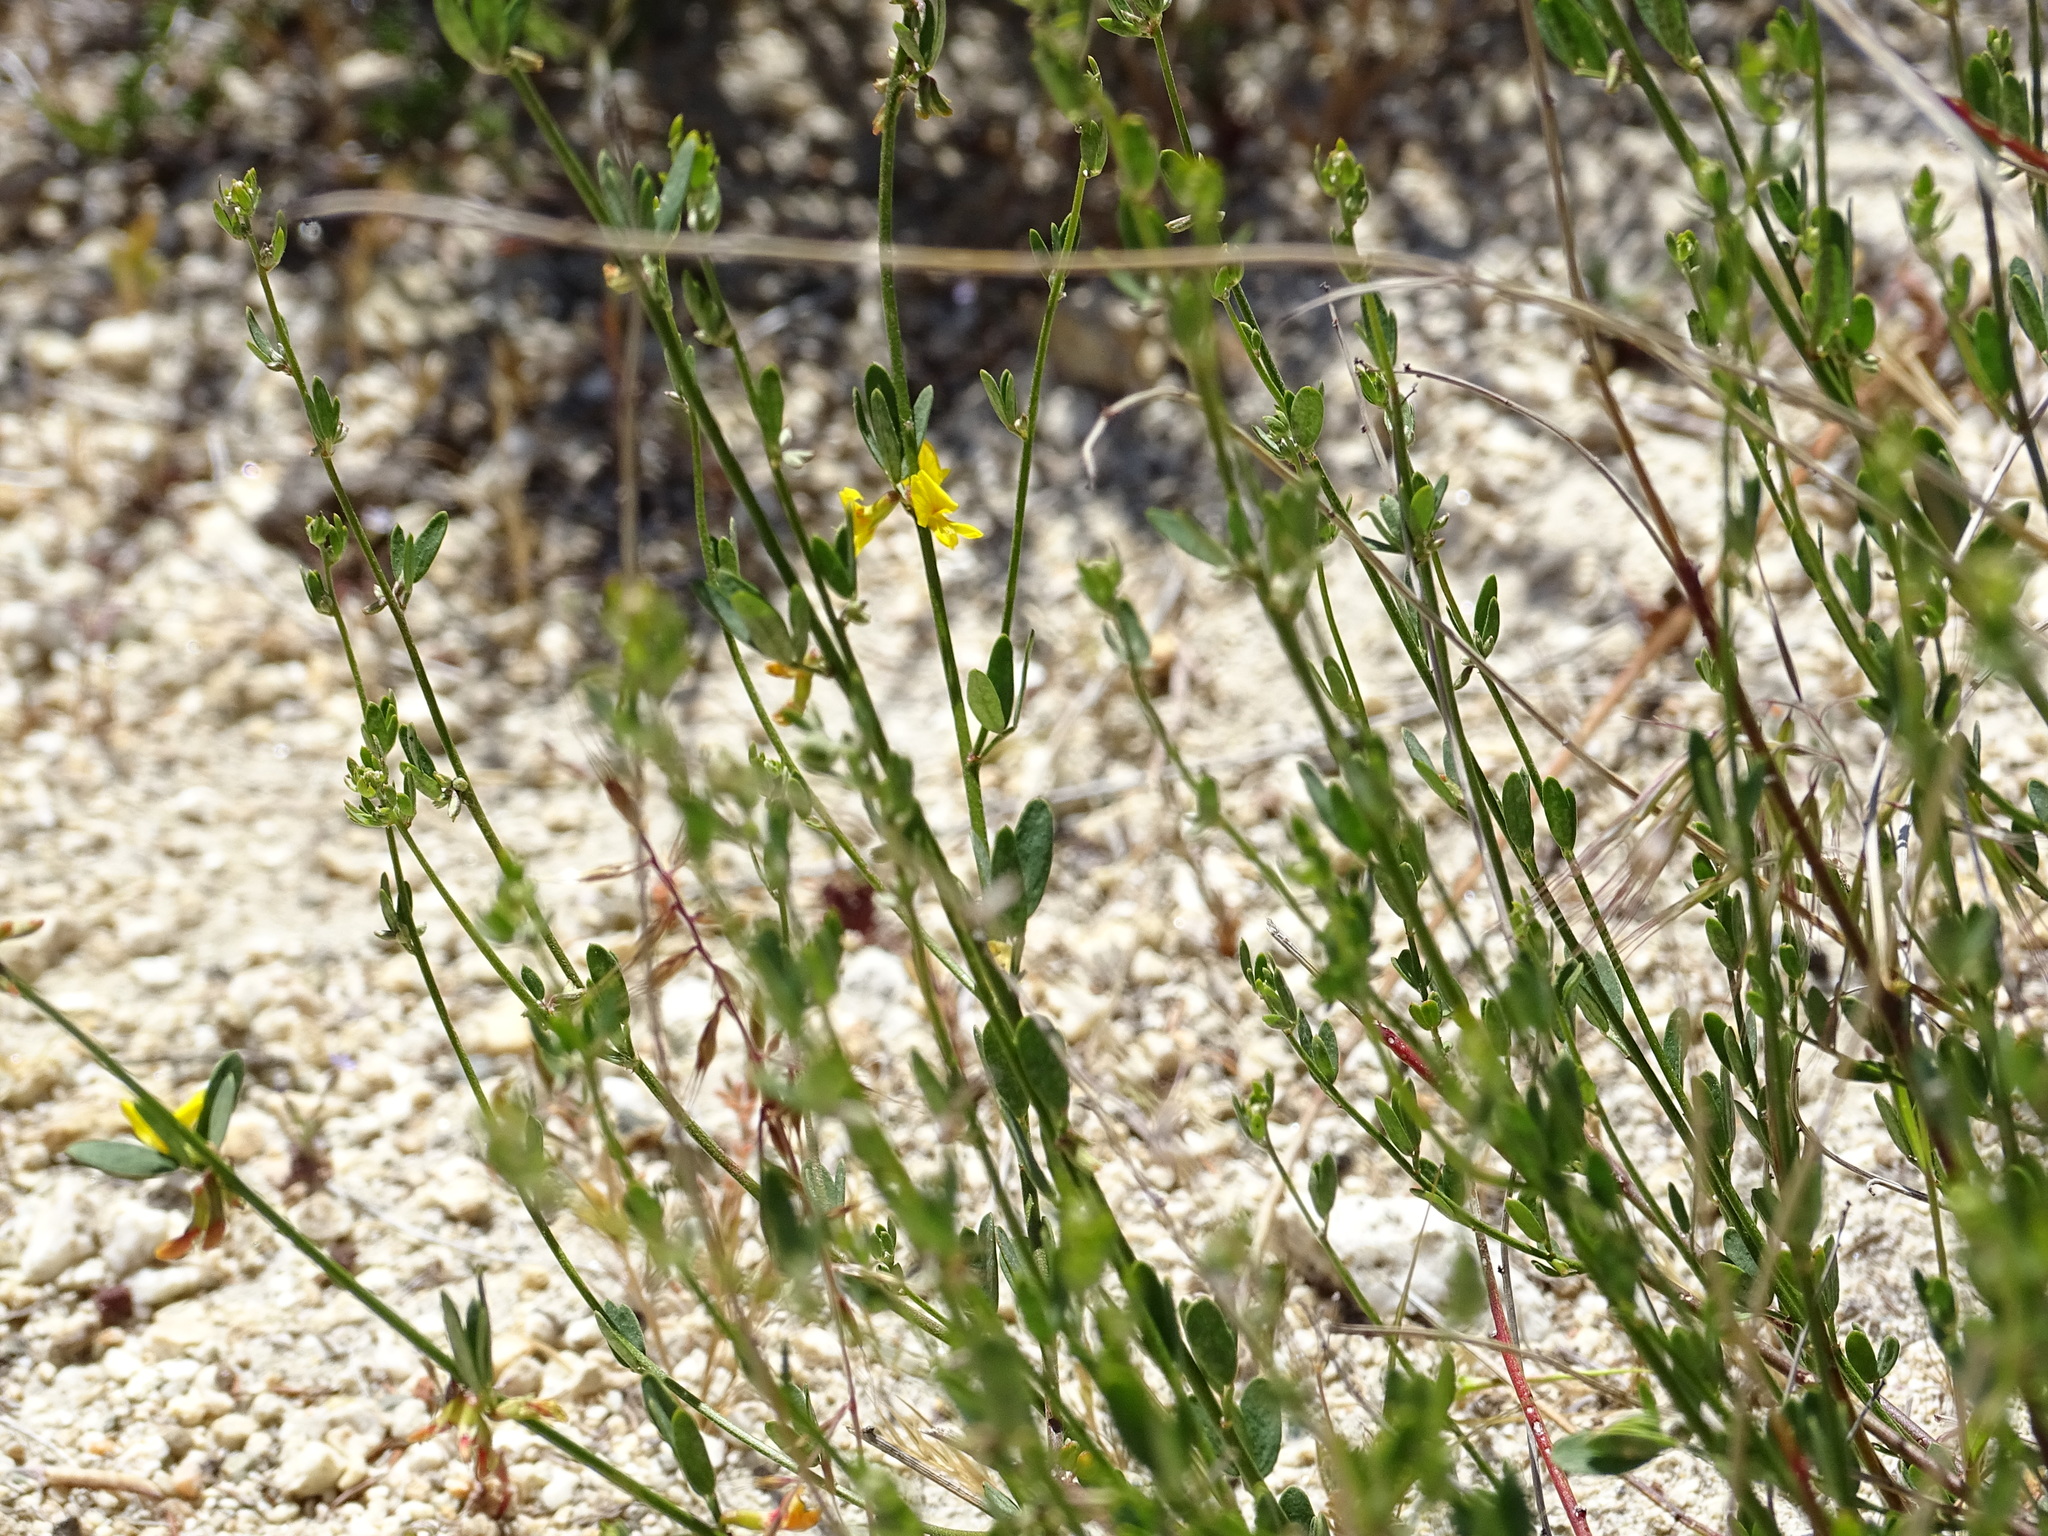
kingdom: Plantae
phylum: Tracheophyta
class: Magnoliopsida
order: Fabales
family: Fabaceae
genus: Acmispon
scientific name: Acmispon glaber
